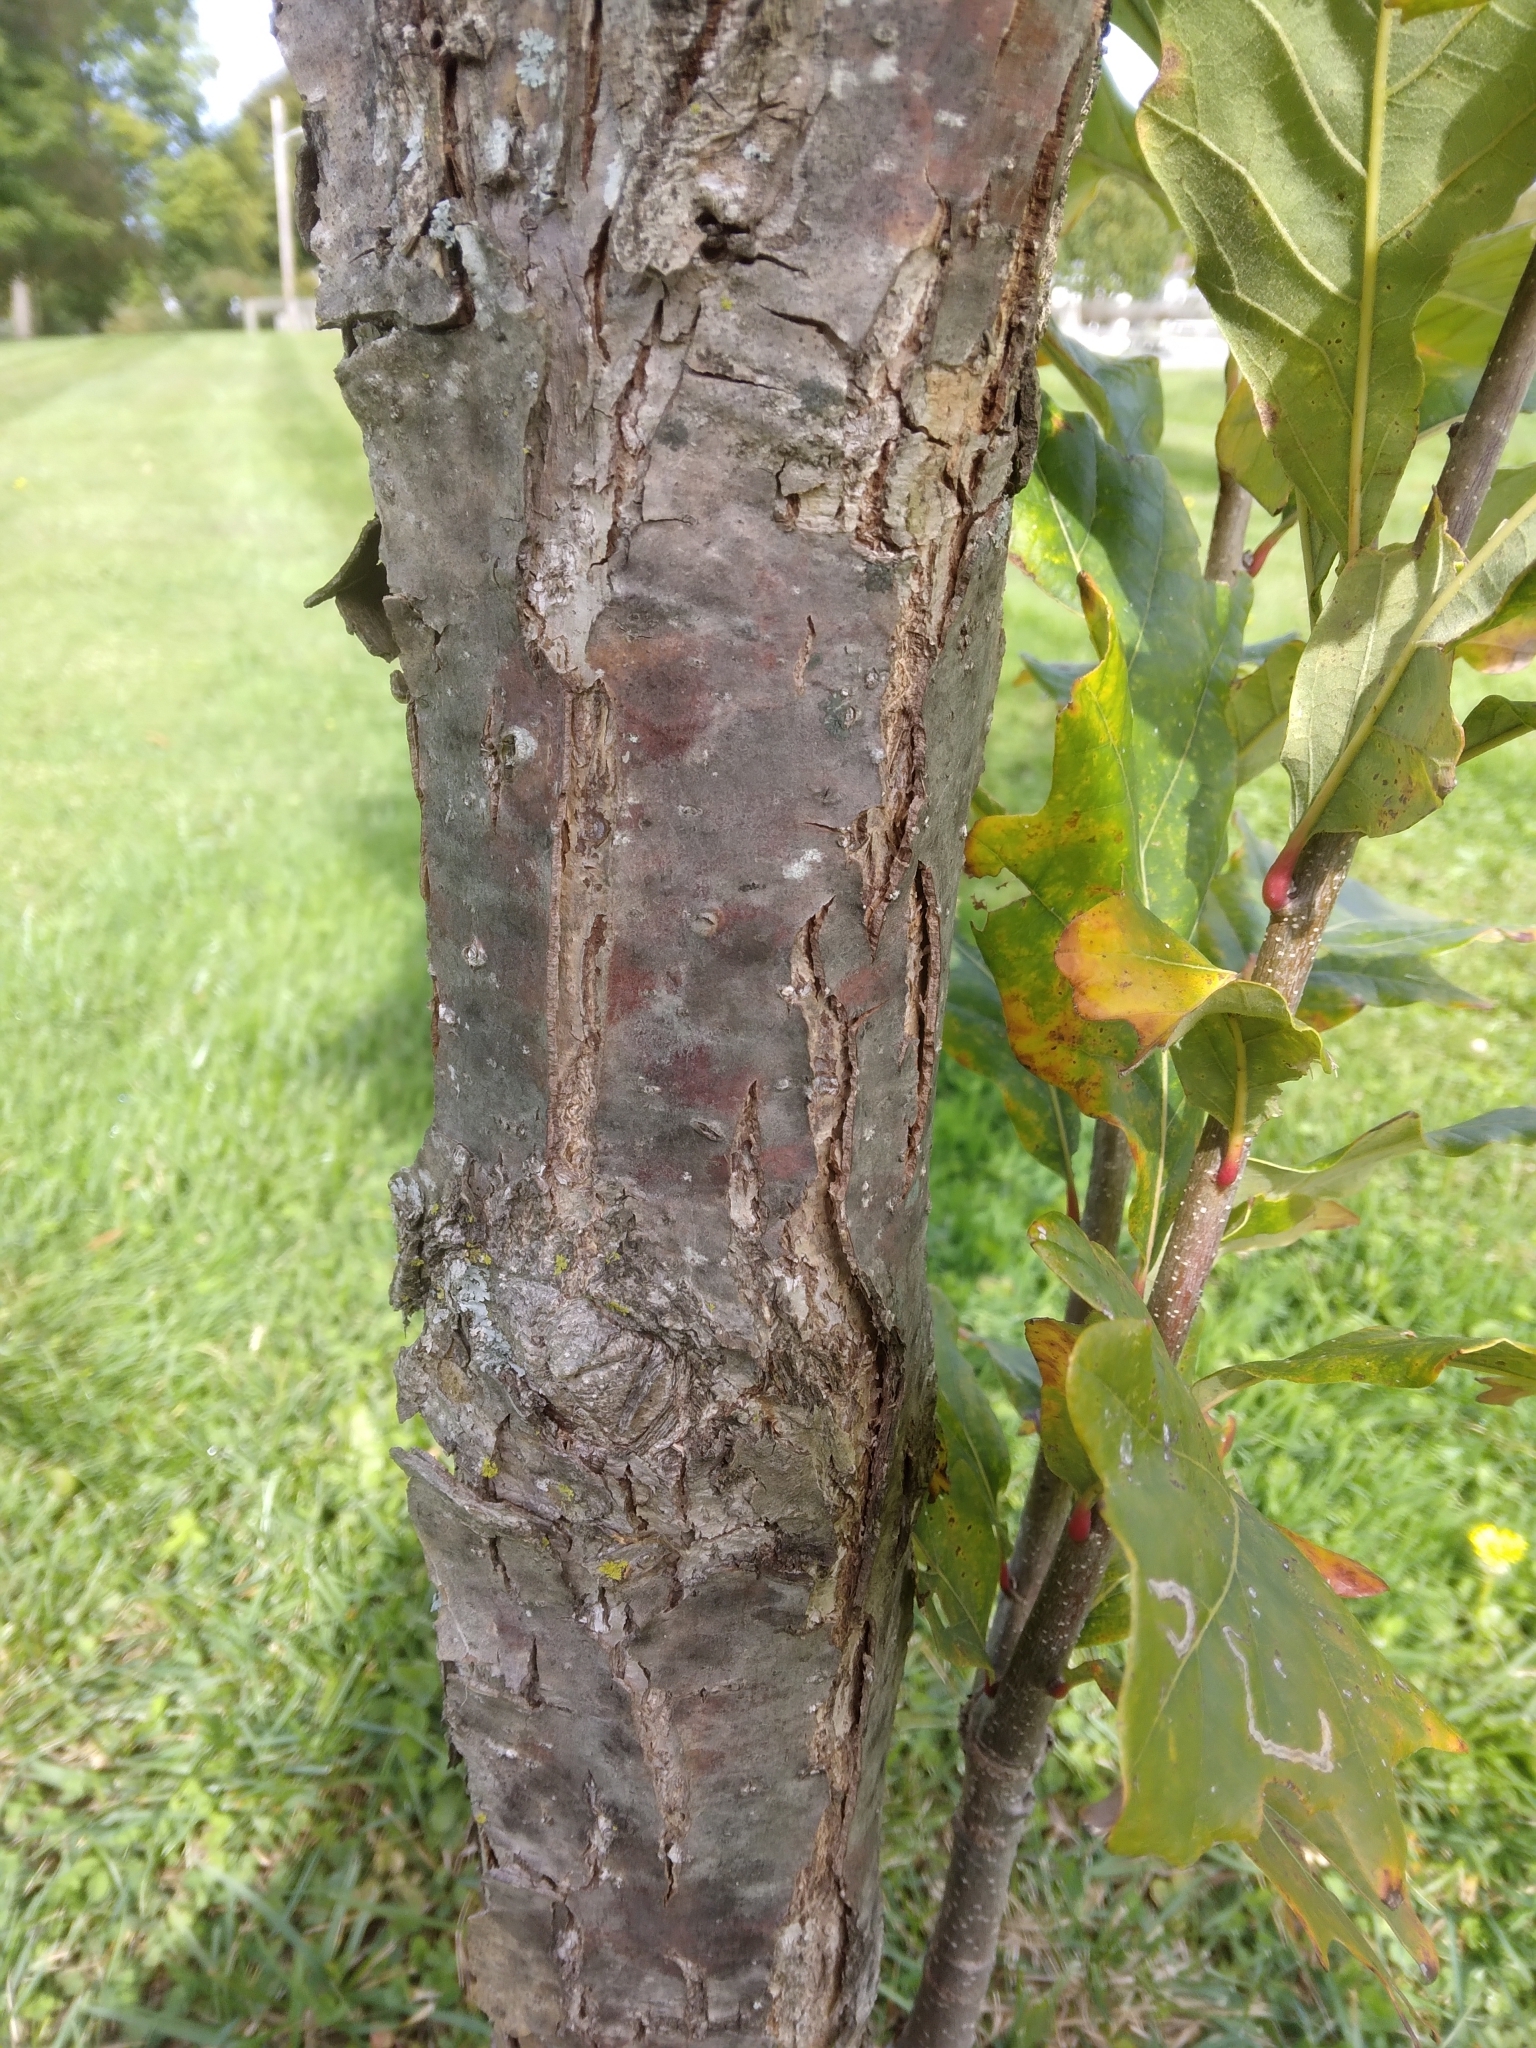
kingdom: Plantae
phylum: Tracheophyta
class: Magnoliopsida
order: Fagales
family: Fagaceae
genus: Quercus
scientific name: Quercus bicolor
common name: Swamp white oak
